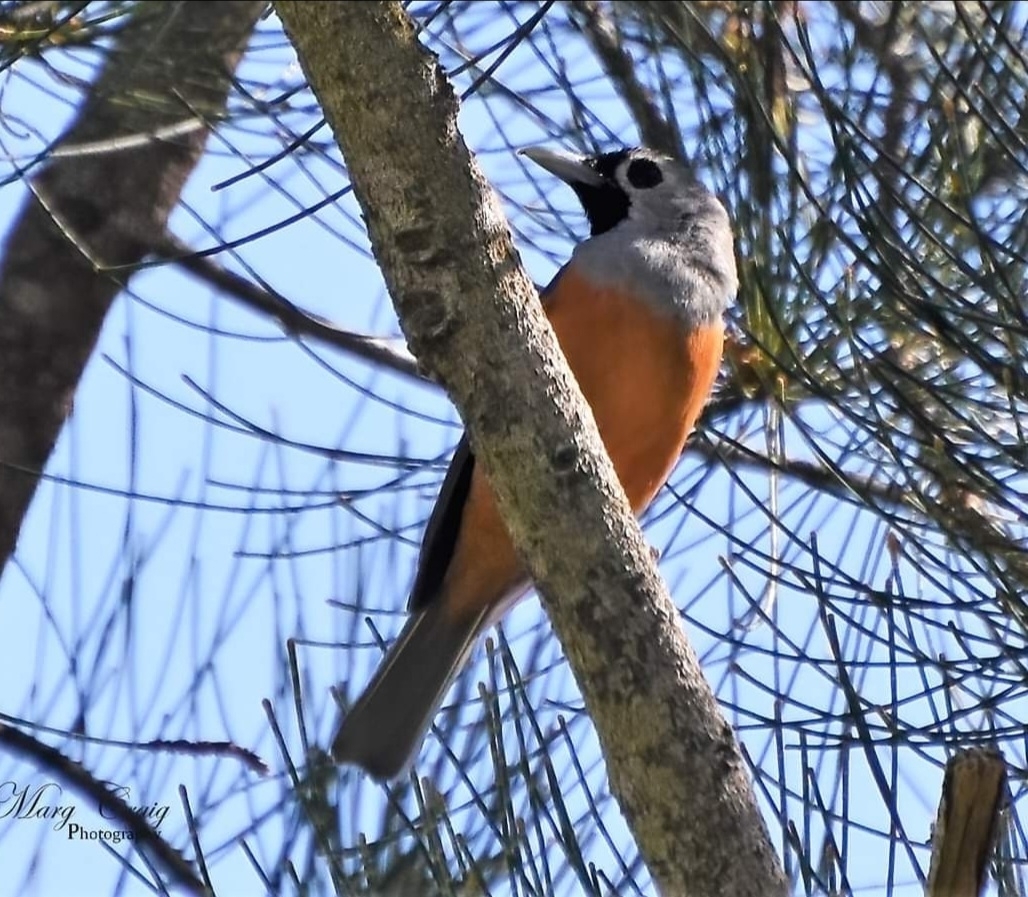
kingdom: Animalia
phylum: Chordata
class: Aves
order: Passeriformes
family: Monarchidae
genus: Monarcha
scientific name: Monarcha melanopsis
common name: Black-faced monarch
